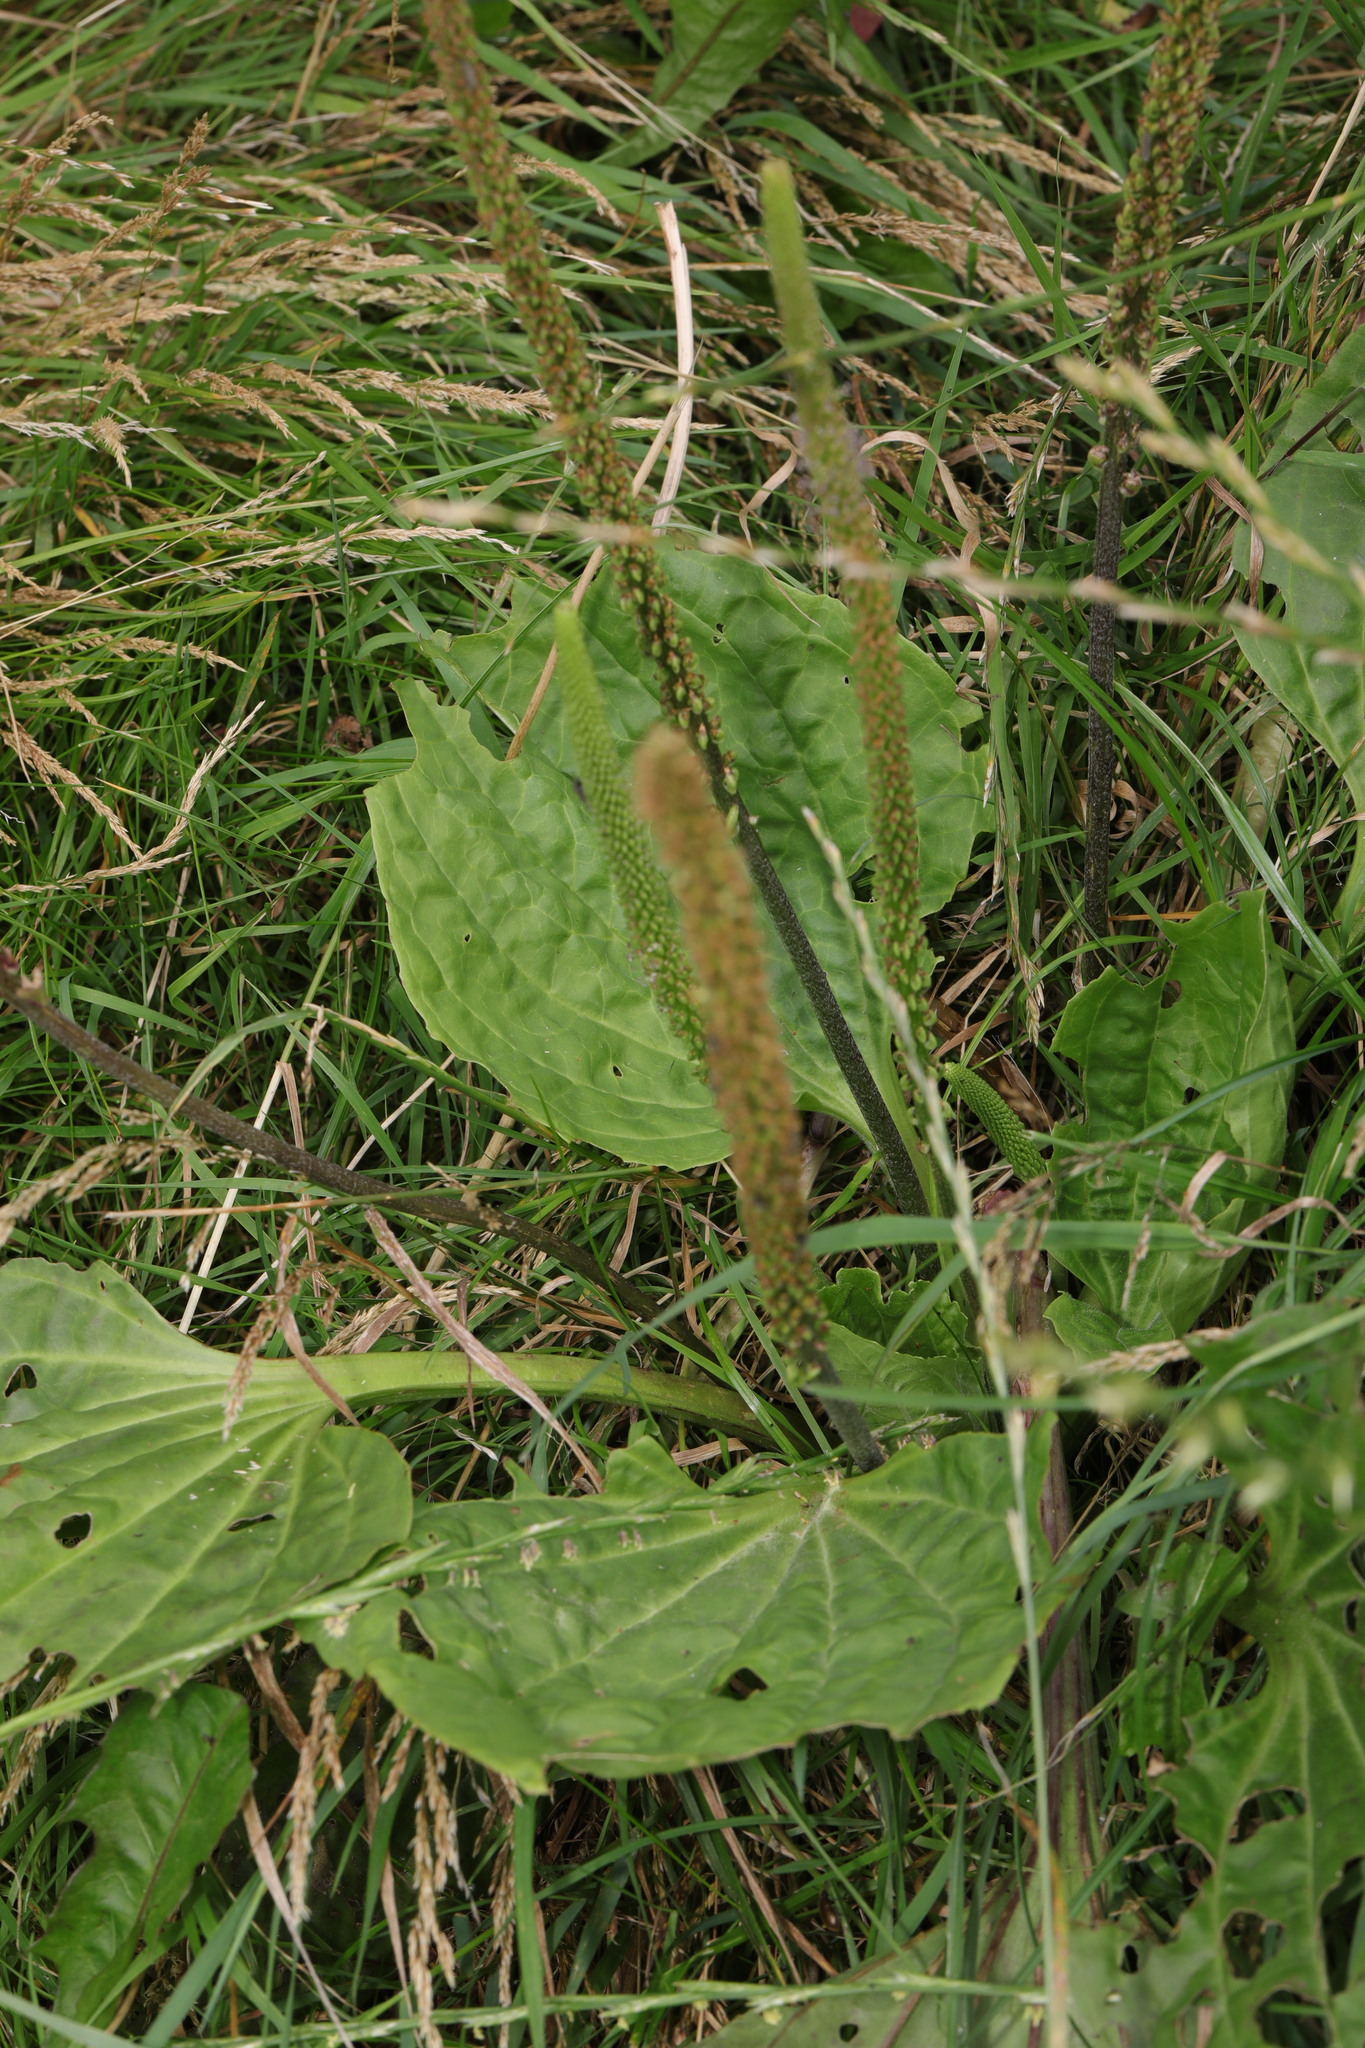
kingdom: Plantae
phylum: Tracheophyta
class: Magnoliopsida
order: Lamiales
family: Plantaginaceae
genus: Plantago
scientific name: Plantago major
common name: Common plantain
